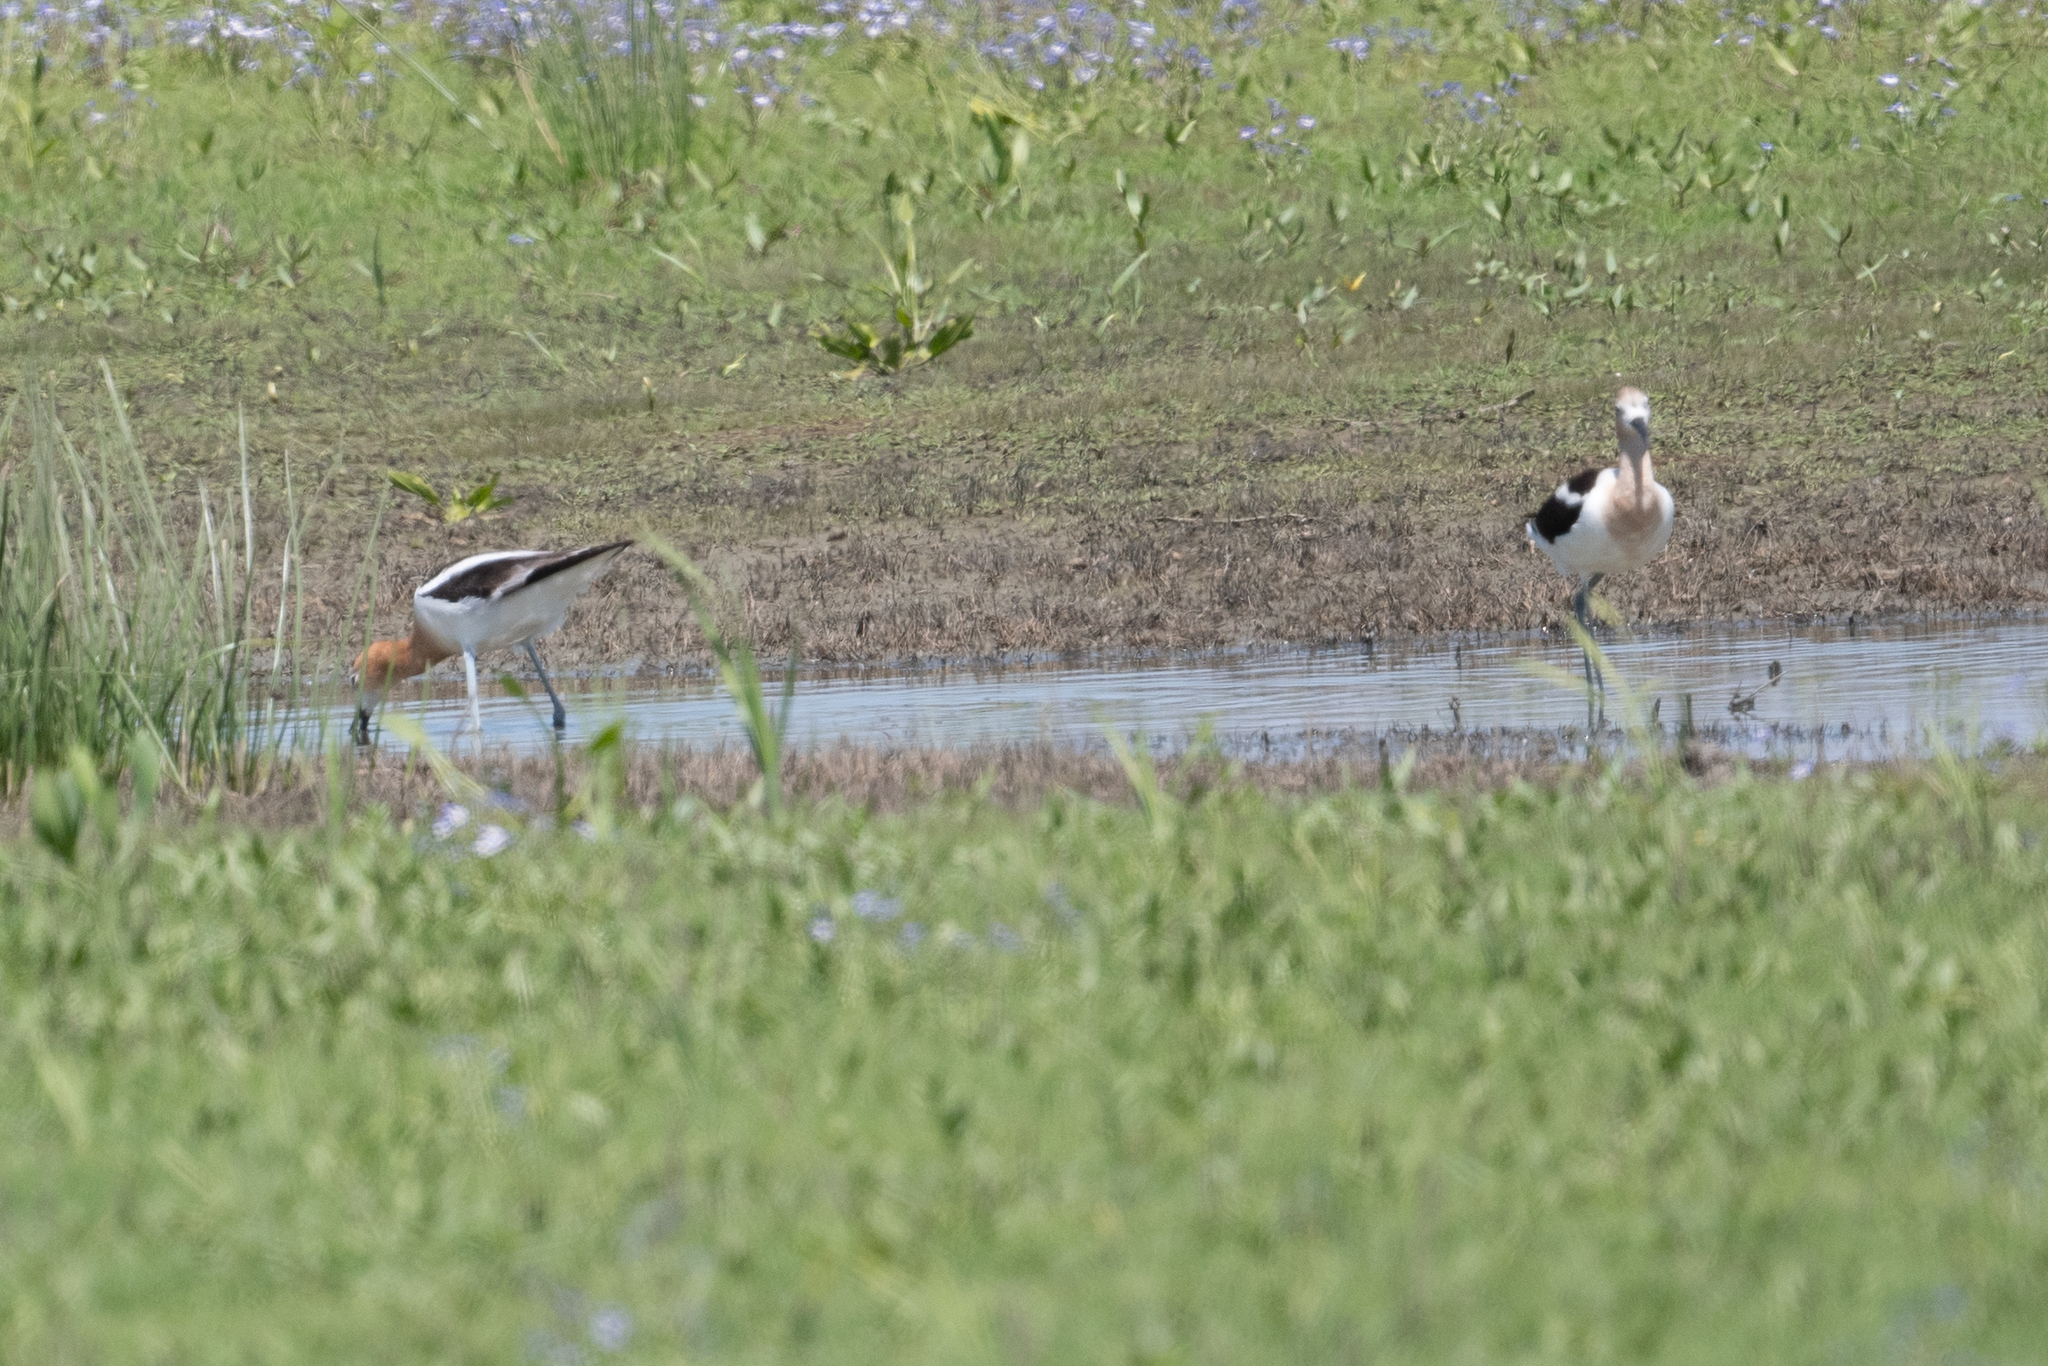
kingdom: Animalia
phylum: Chordata
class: Aves
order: Charadriiformes
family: Recurvirostridae
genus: Recurvirostra
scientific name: Recurvirostra americana
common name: American avocet
